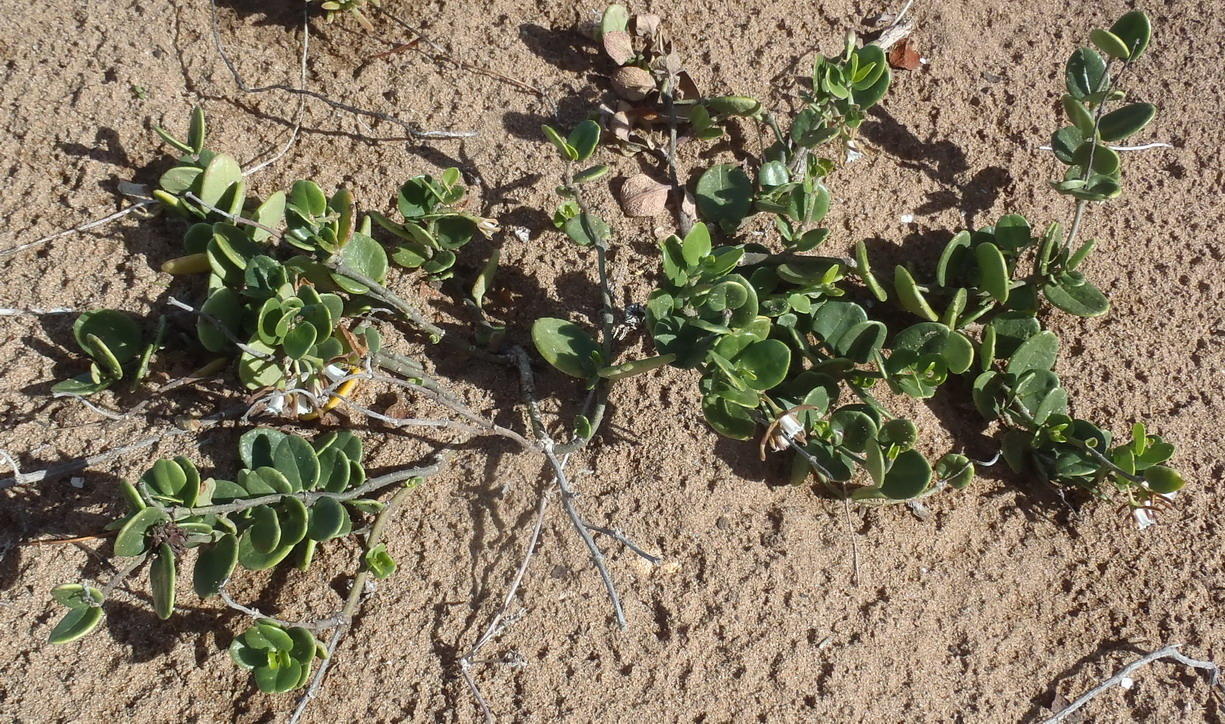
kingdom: Plantae
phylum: Tracheophyta
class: Magnoliopsida
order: Gentianales
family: Apocynaceae
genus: Cynanchum
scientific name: Cynanchum africanum
